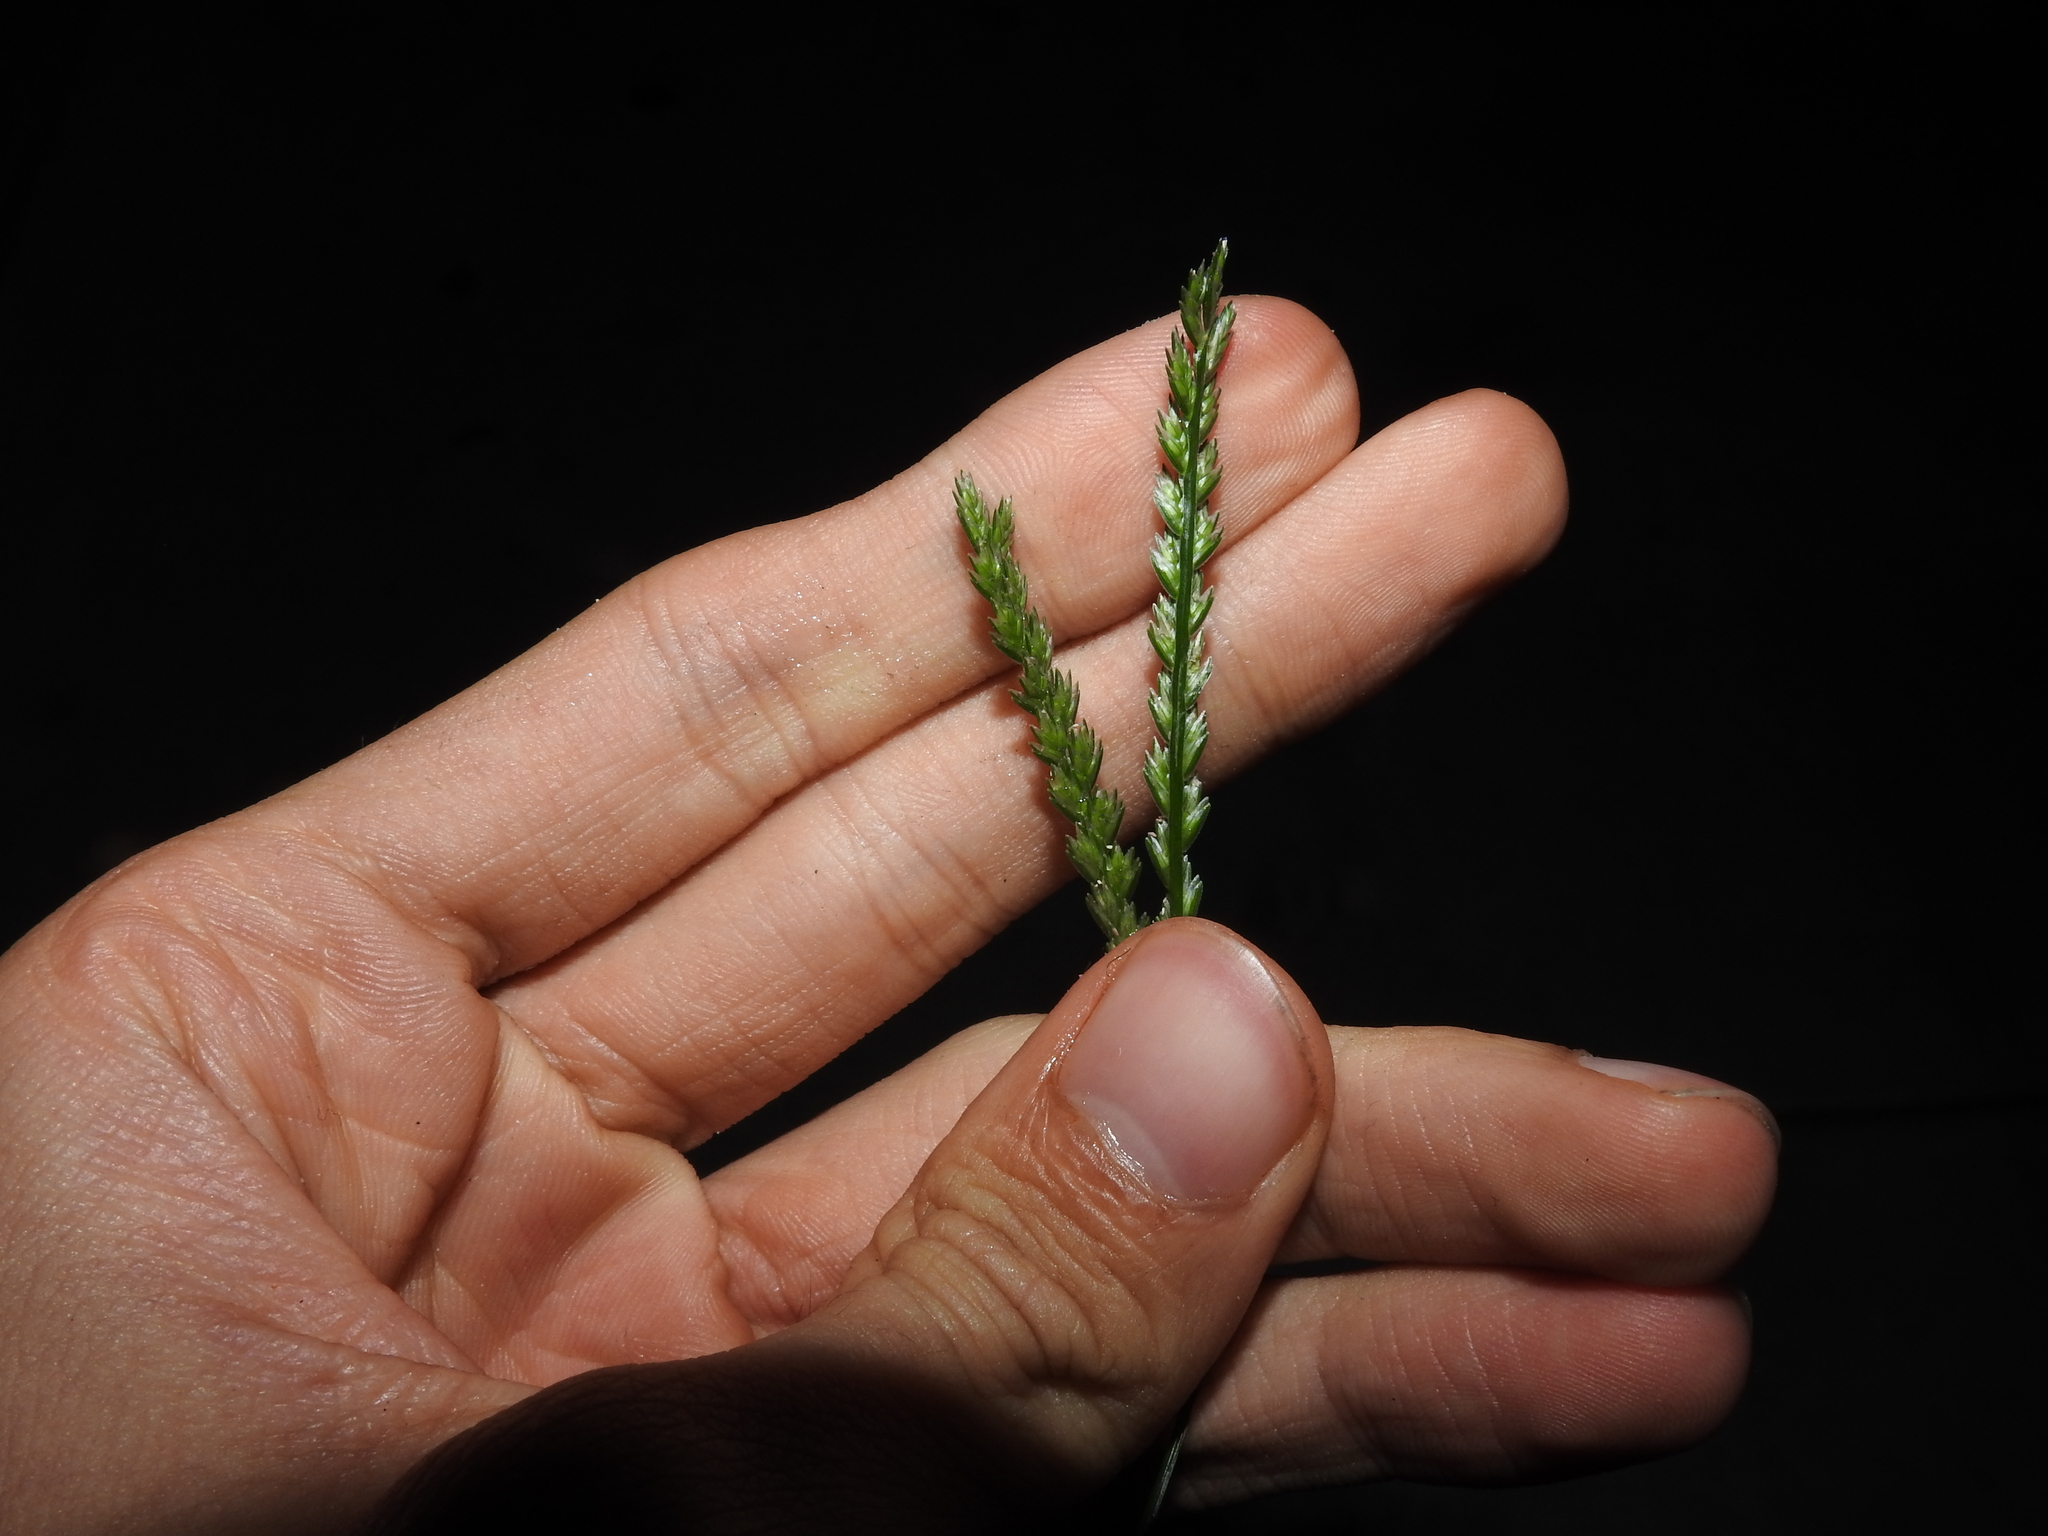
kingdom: Plantae
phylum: Tracheophyta
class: Liliopsida
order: Poales
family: Poaceae
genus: Eleusine
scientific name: Eleusine indica
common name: Yard-grass
